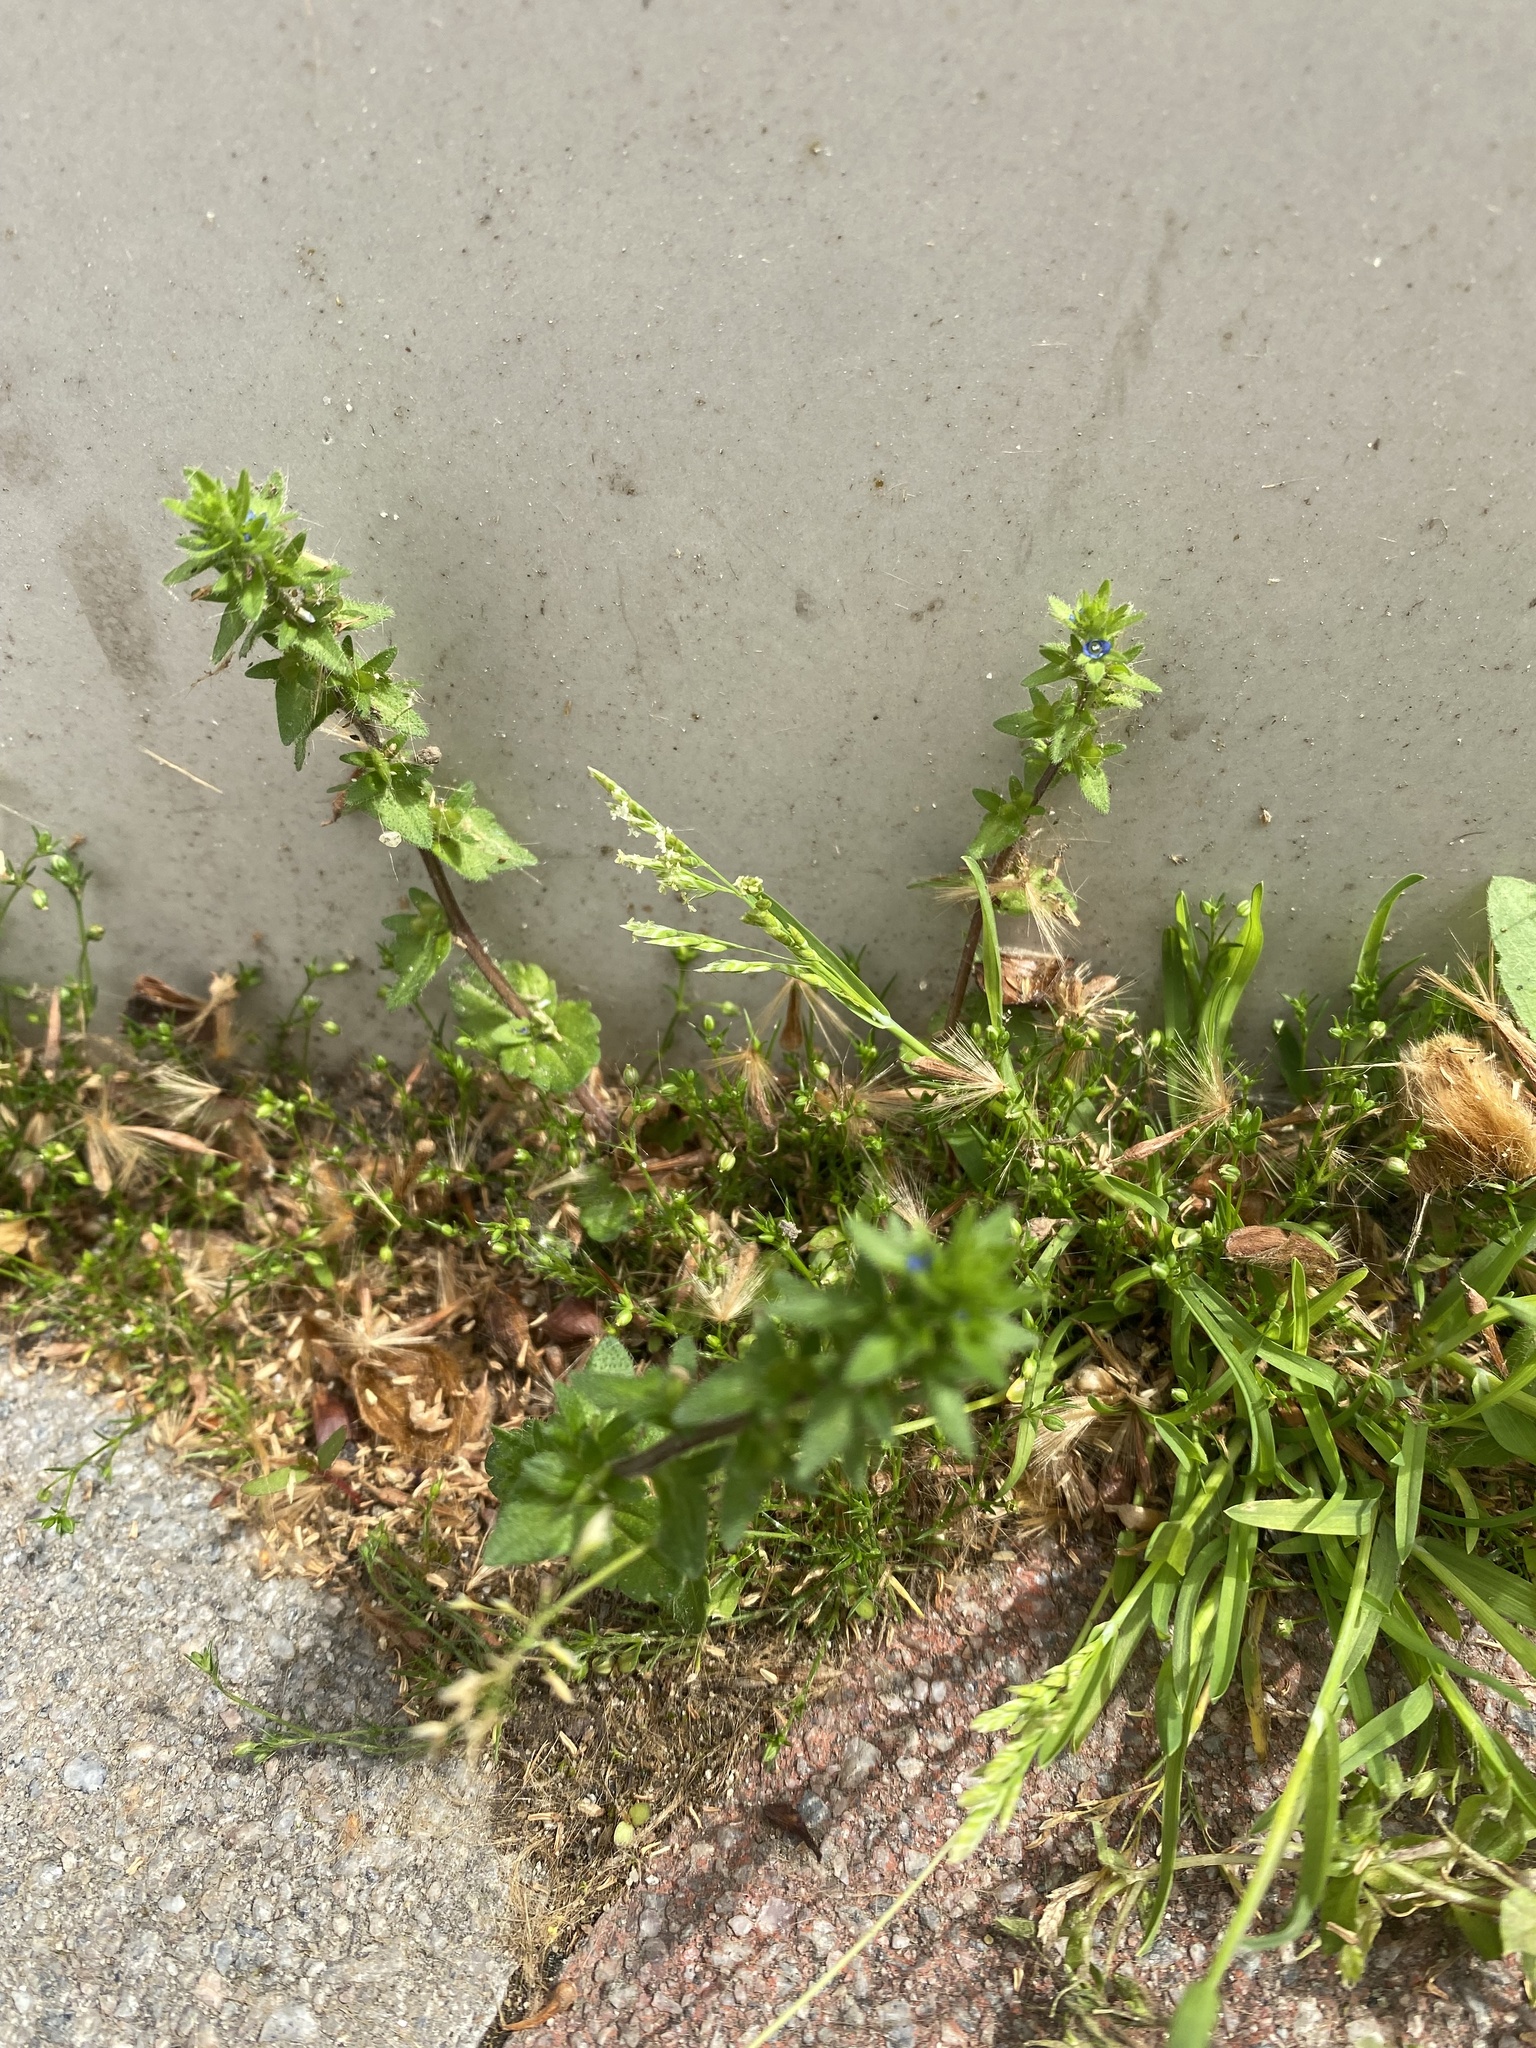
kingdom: Plantae
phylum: Tracheophyta
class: Magnoliopsida
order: Lamiales
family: Plantaginaceae
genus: Veronica
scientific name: Veronica arvensis
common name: Corn speedwell
